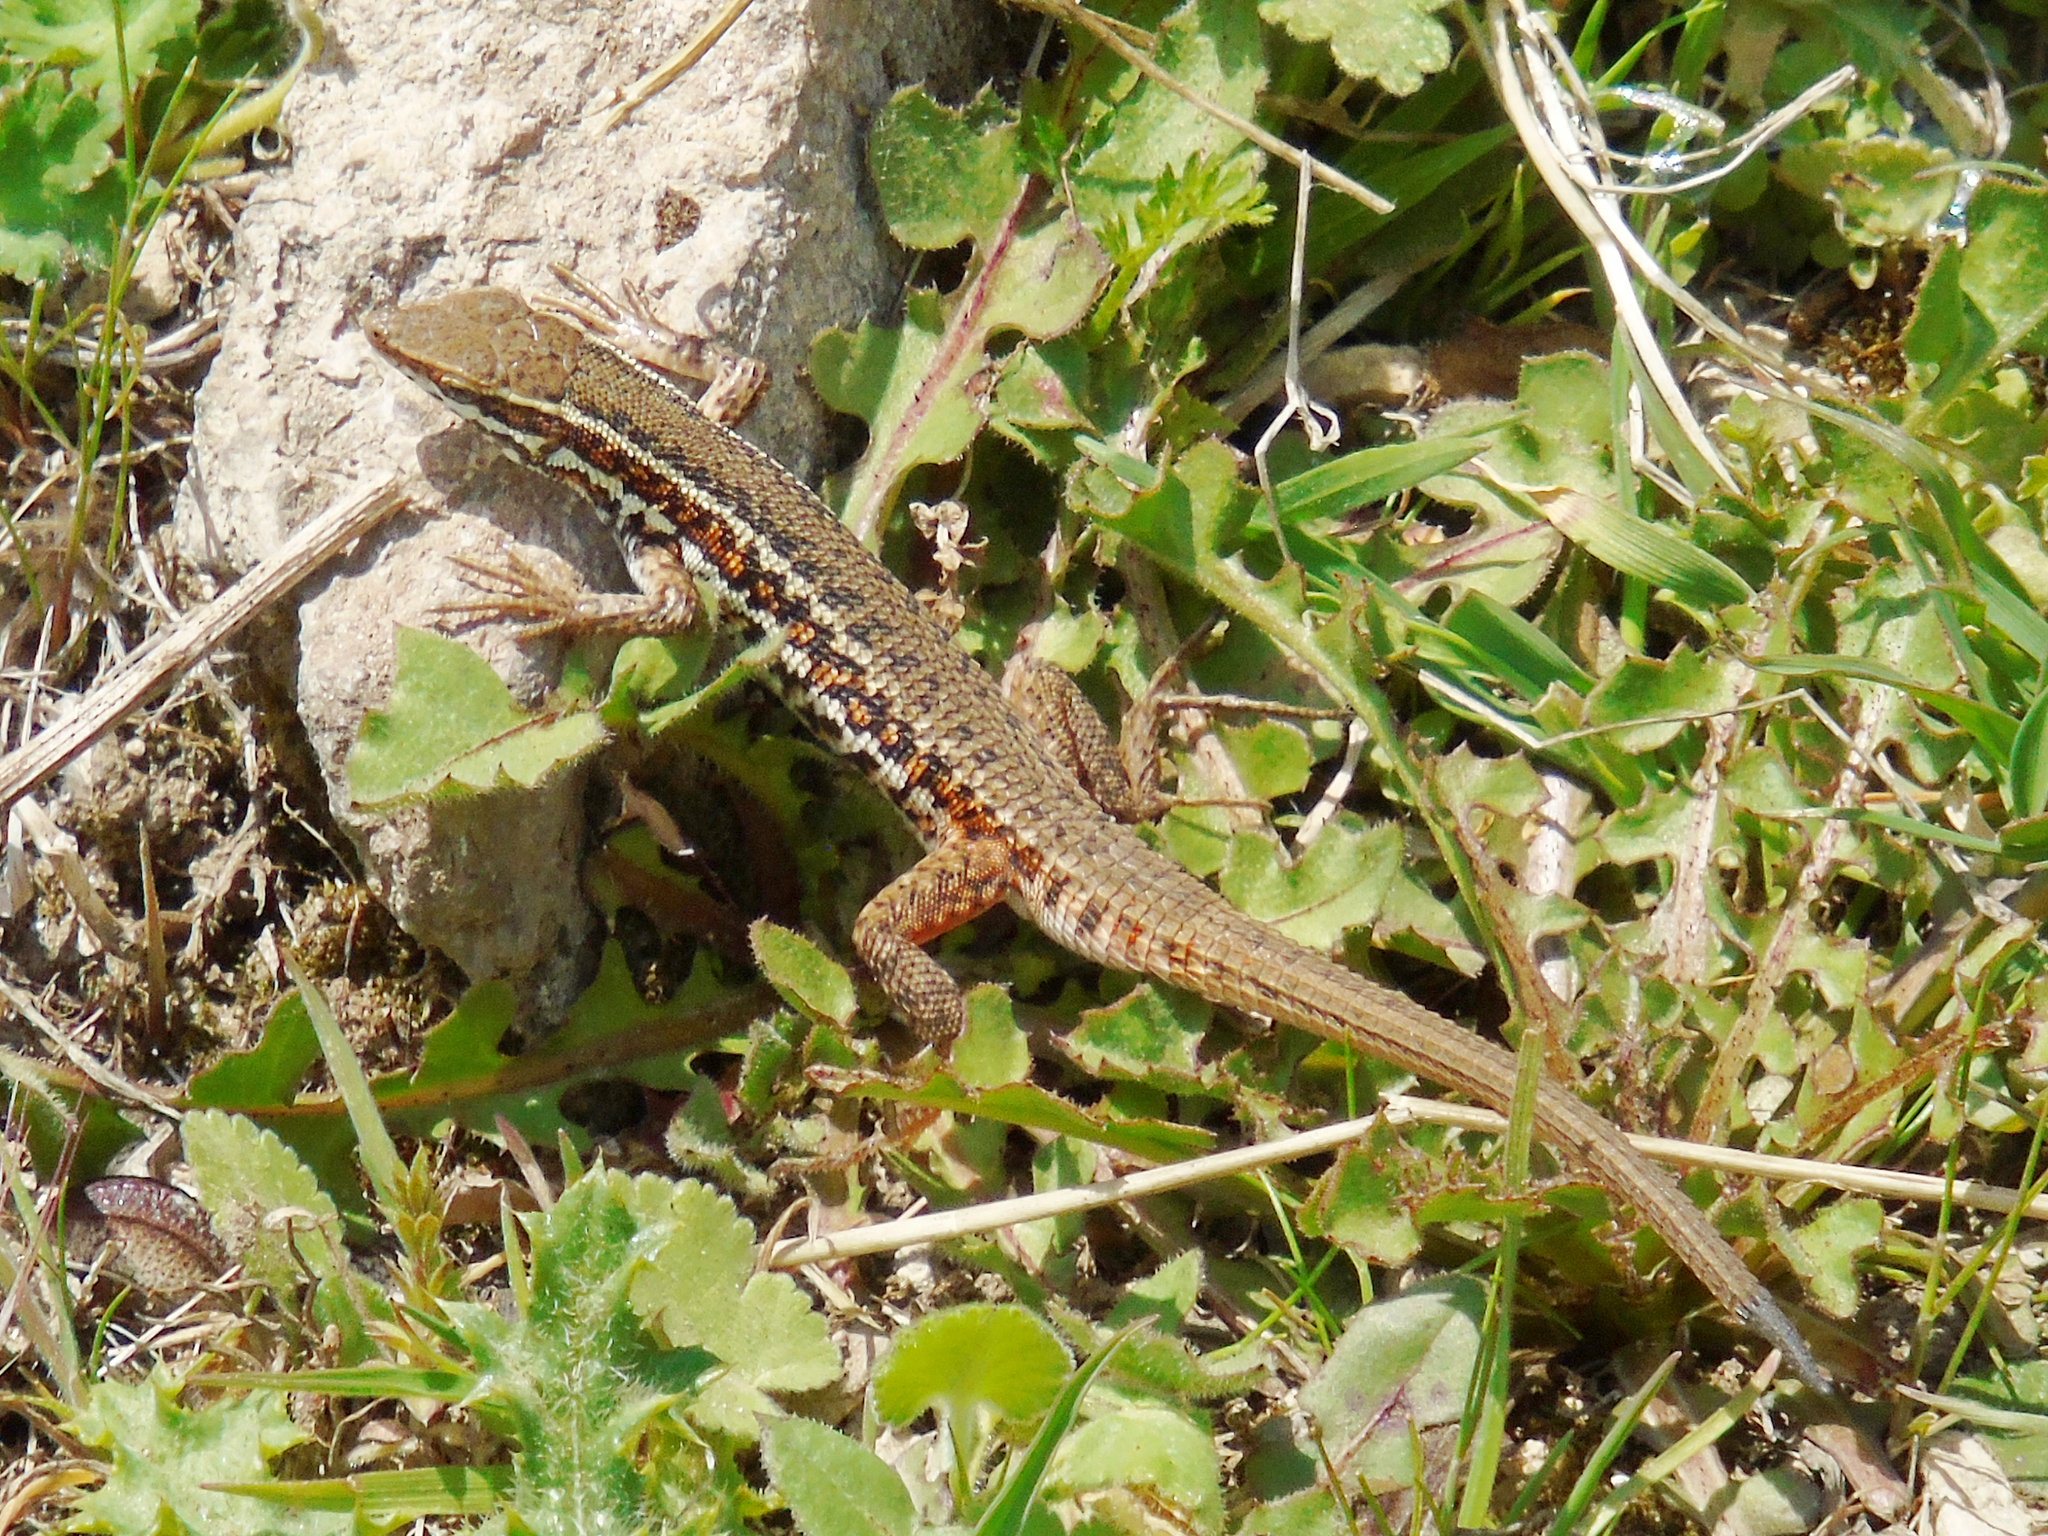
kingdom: Animalia
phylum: Chordata
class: Squamata
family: Lacertidae
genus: Ophisops
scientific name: Ophisops elegans
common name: Snake-eyed lizard
